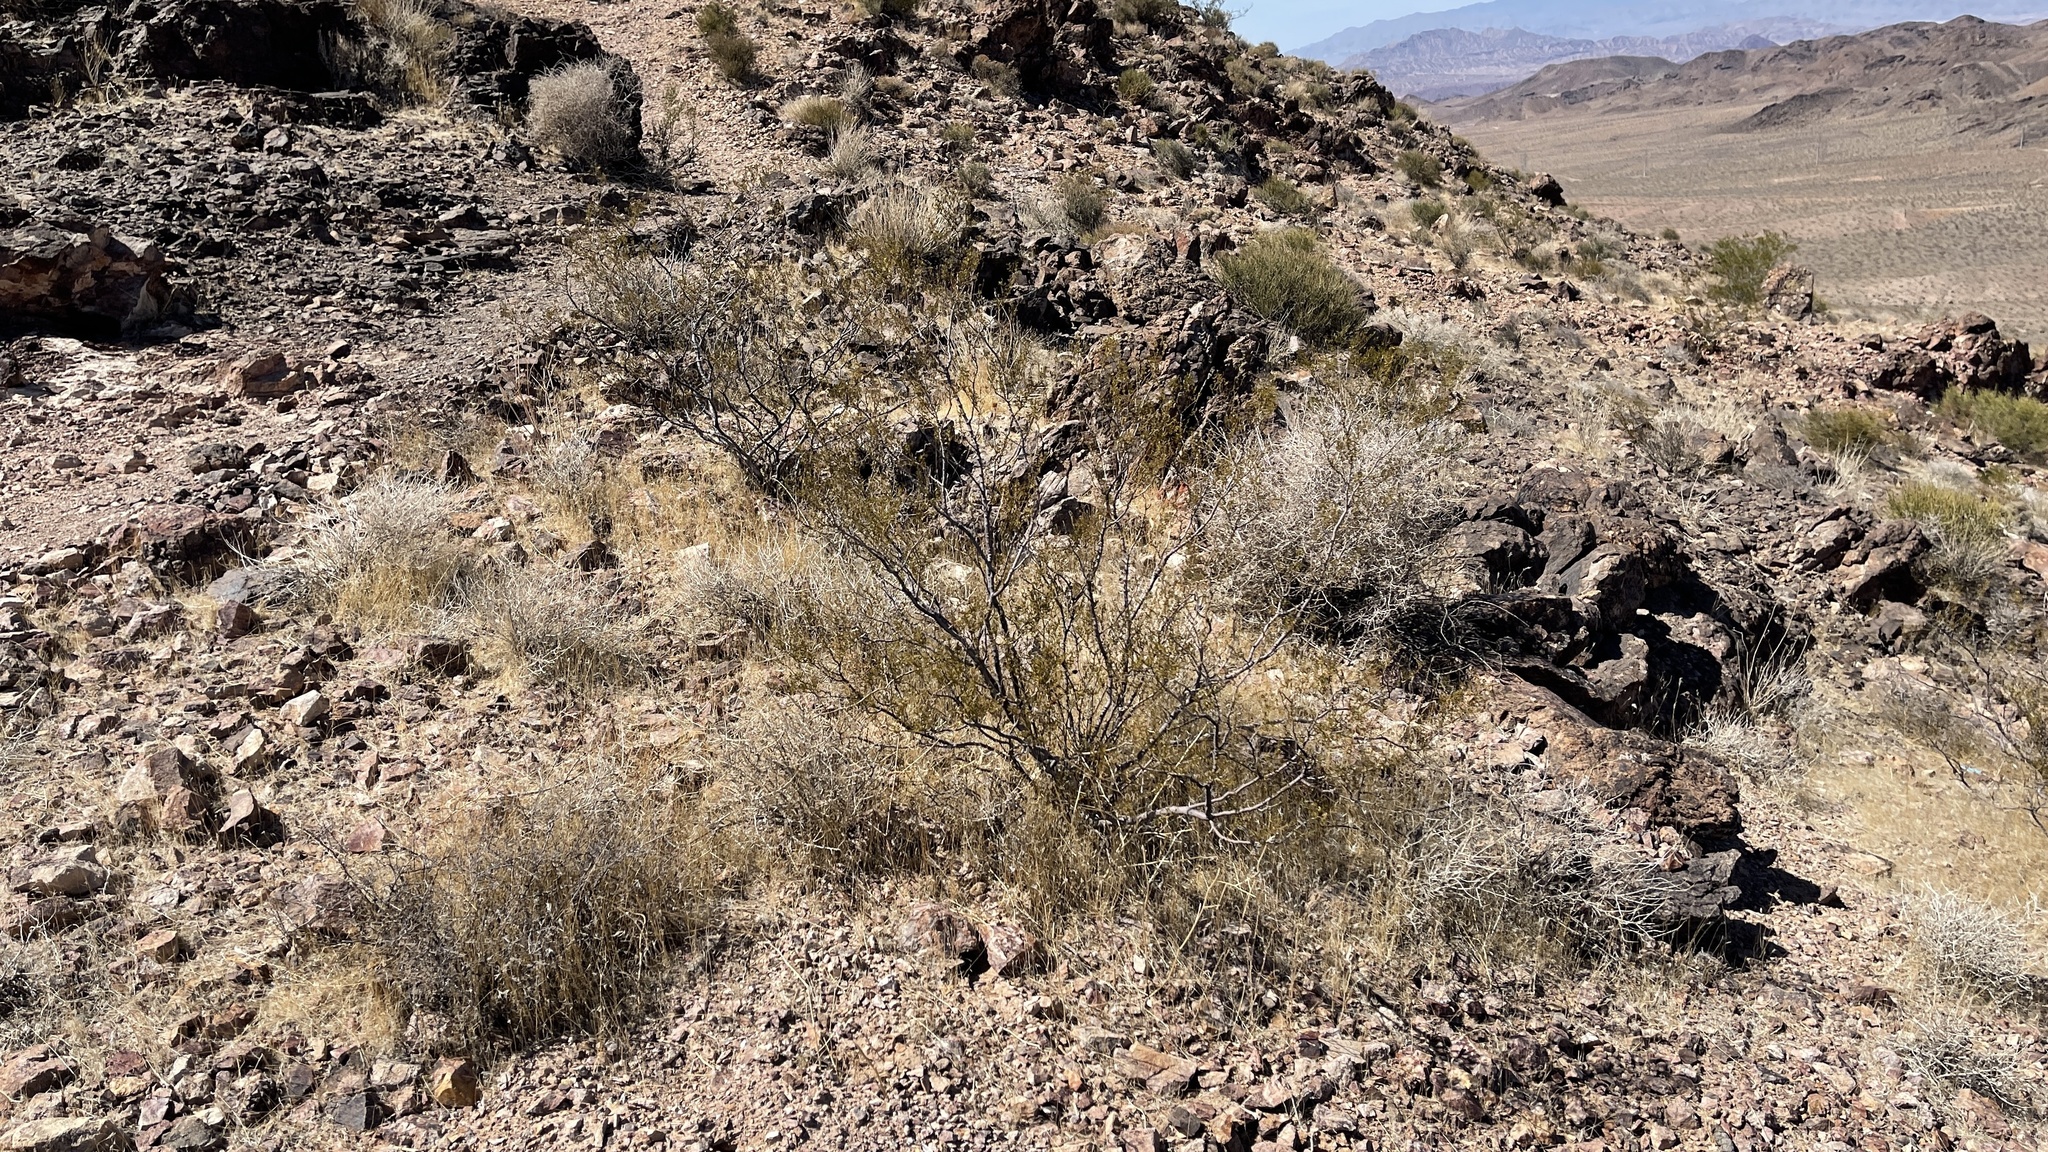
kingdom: Plantae
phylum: Tracheophyta
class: Magnoliopsida
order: Zygophyllales
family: Zygophyllaceae
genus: Larrea
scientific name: Larrea tridentata
